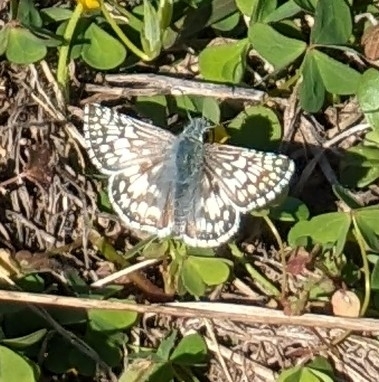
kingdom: Animalia
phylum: Arthropoda
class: Insecta
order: Lepidoptera
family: Hesperiidae
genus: Burnsius
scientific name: Burnsius communis
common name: Common checkered-skipper
